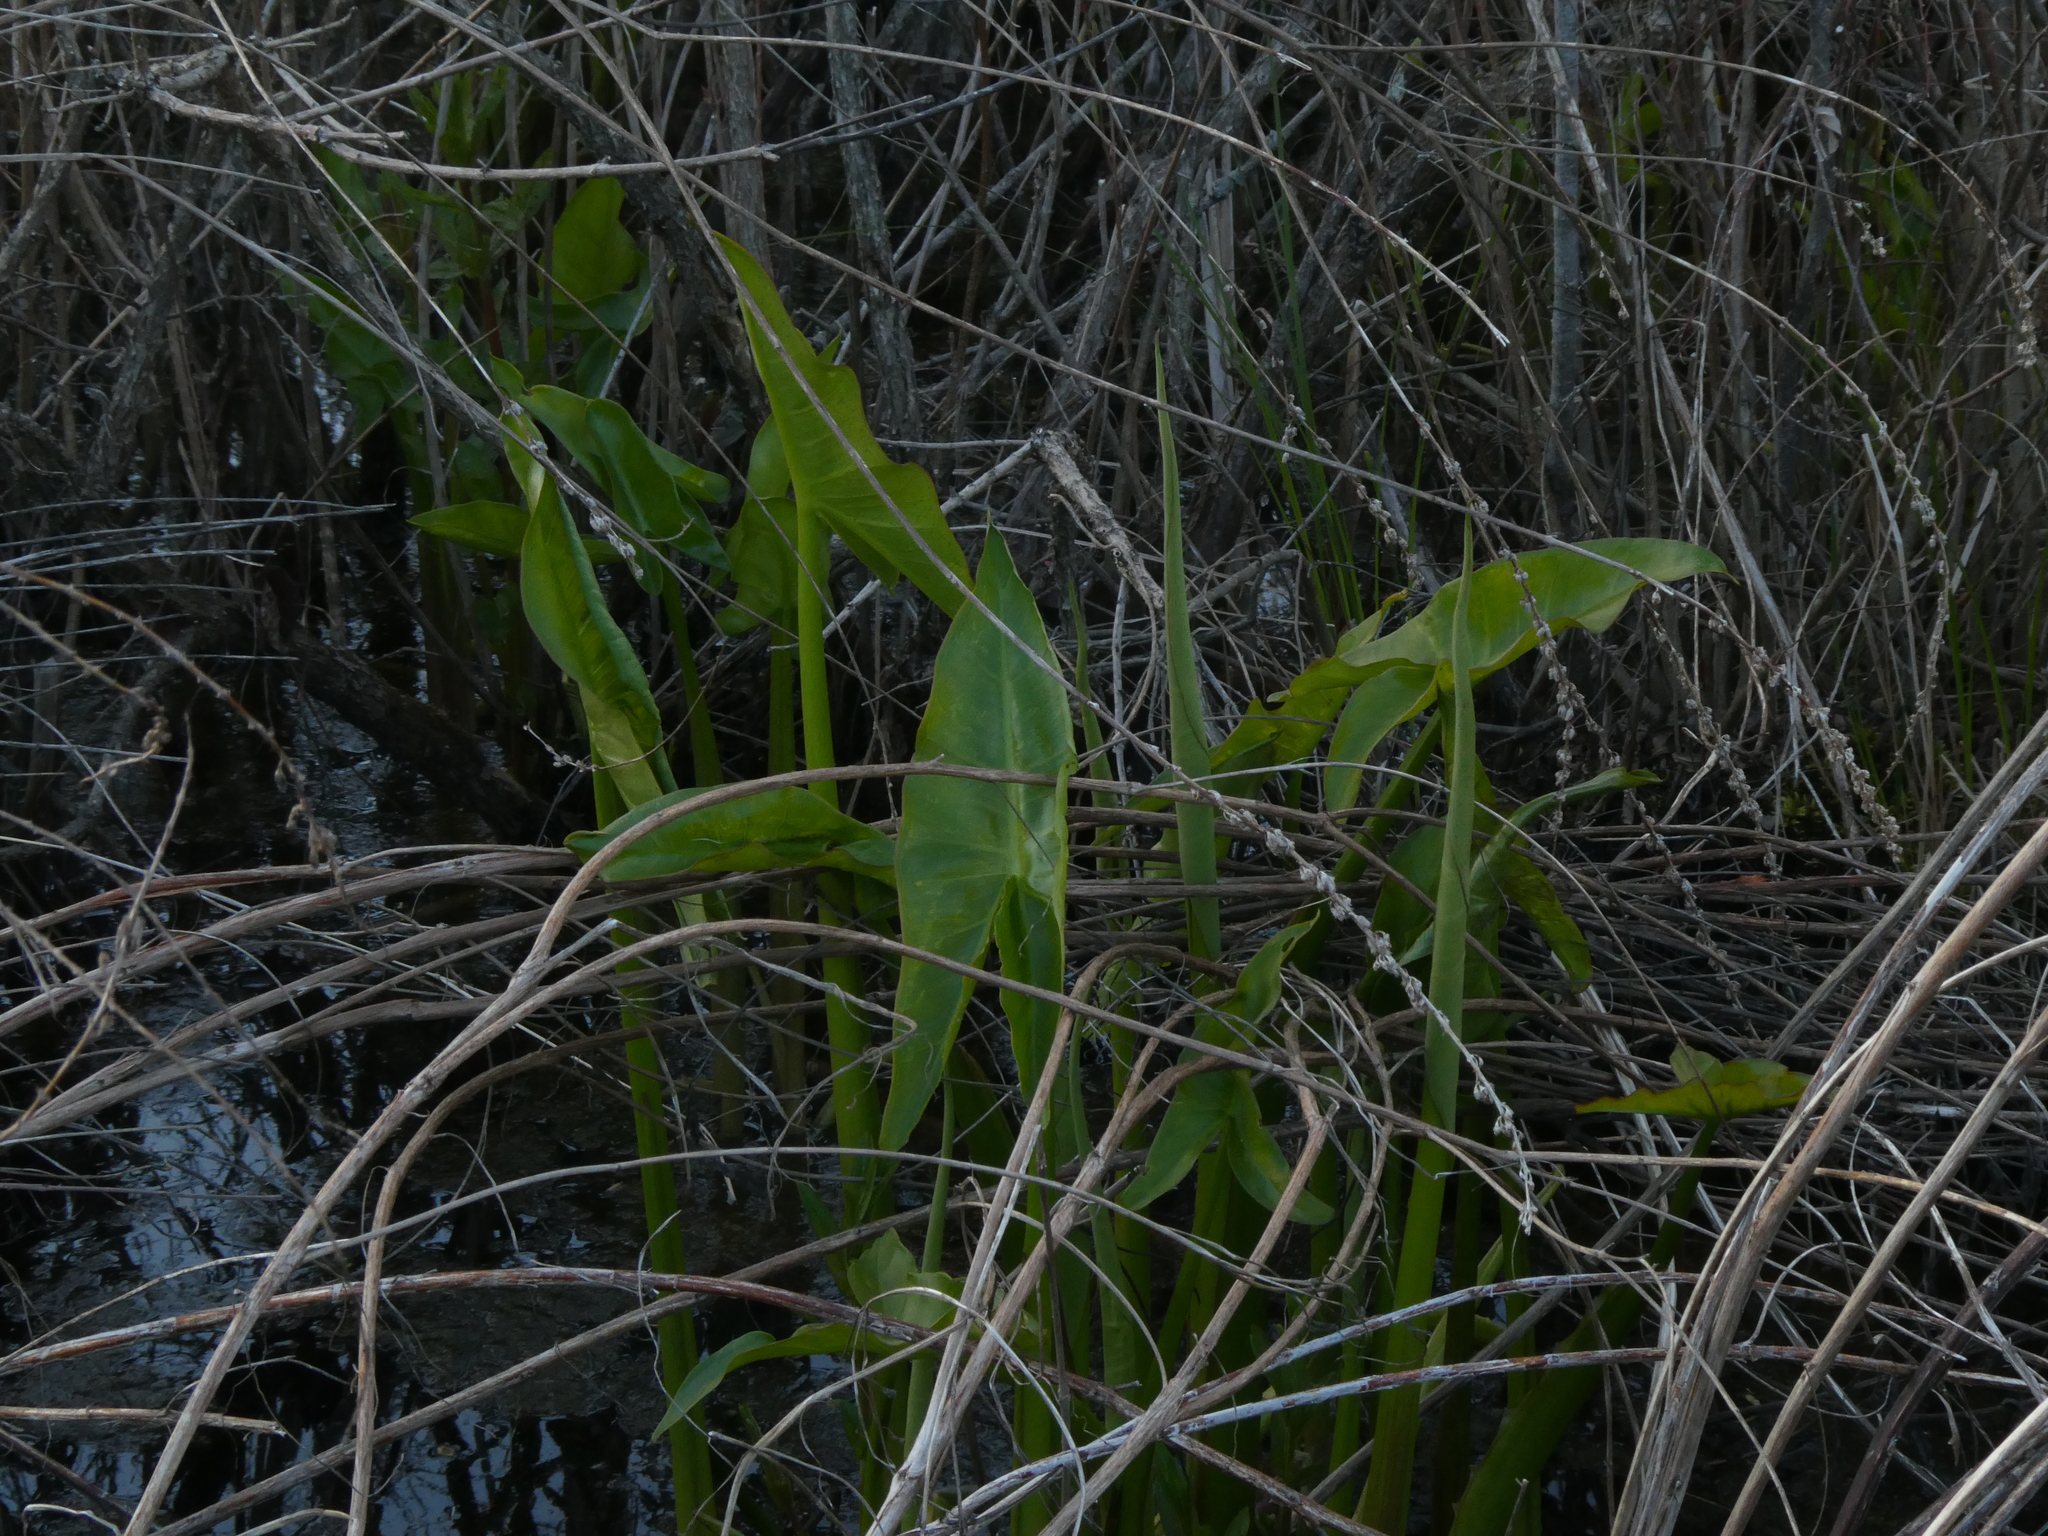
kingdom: Plantae
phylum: Tracheophyta
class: Liliopsida
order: Alismatales
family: Araceae
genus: Peltandra
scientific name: Peltandra virginica
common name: Arrow arum
